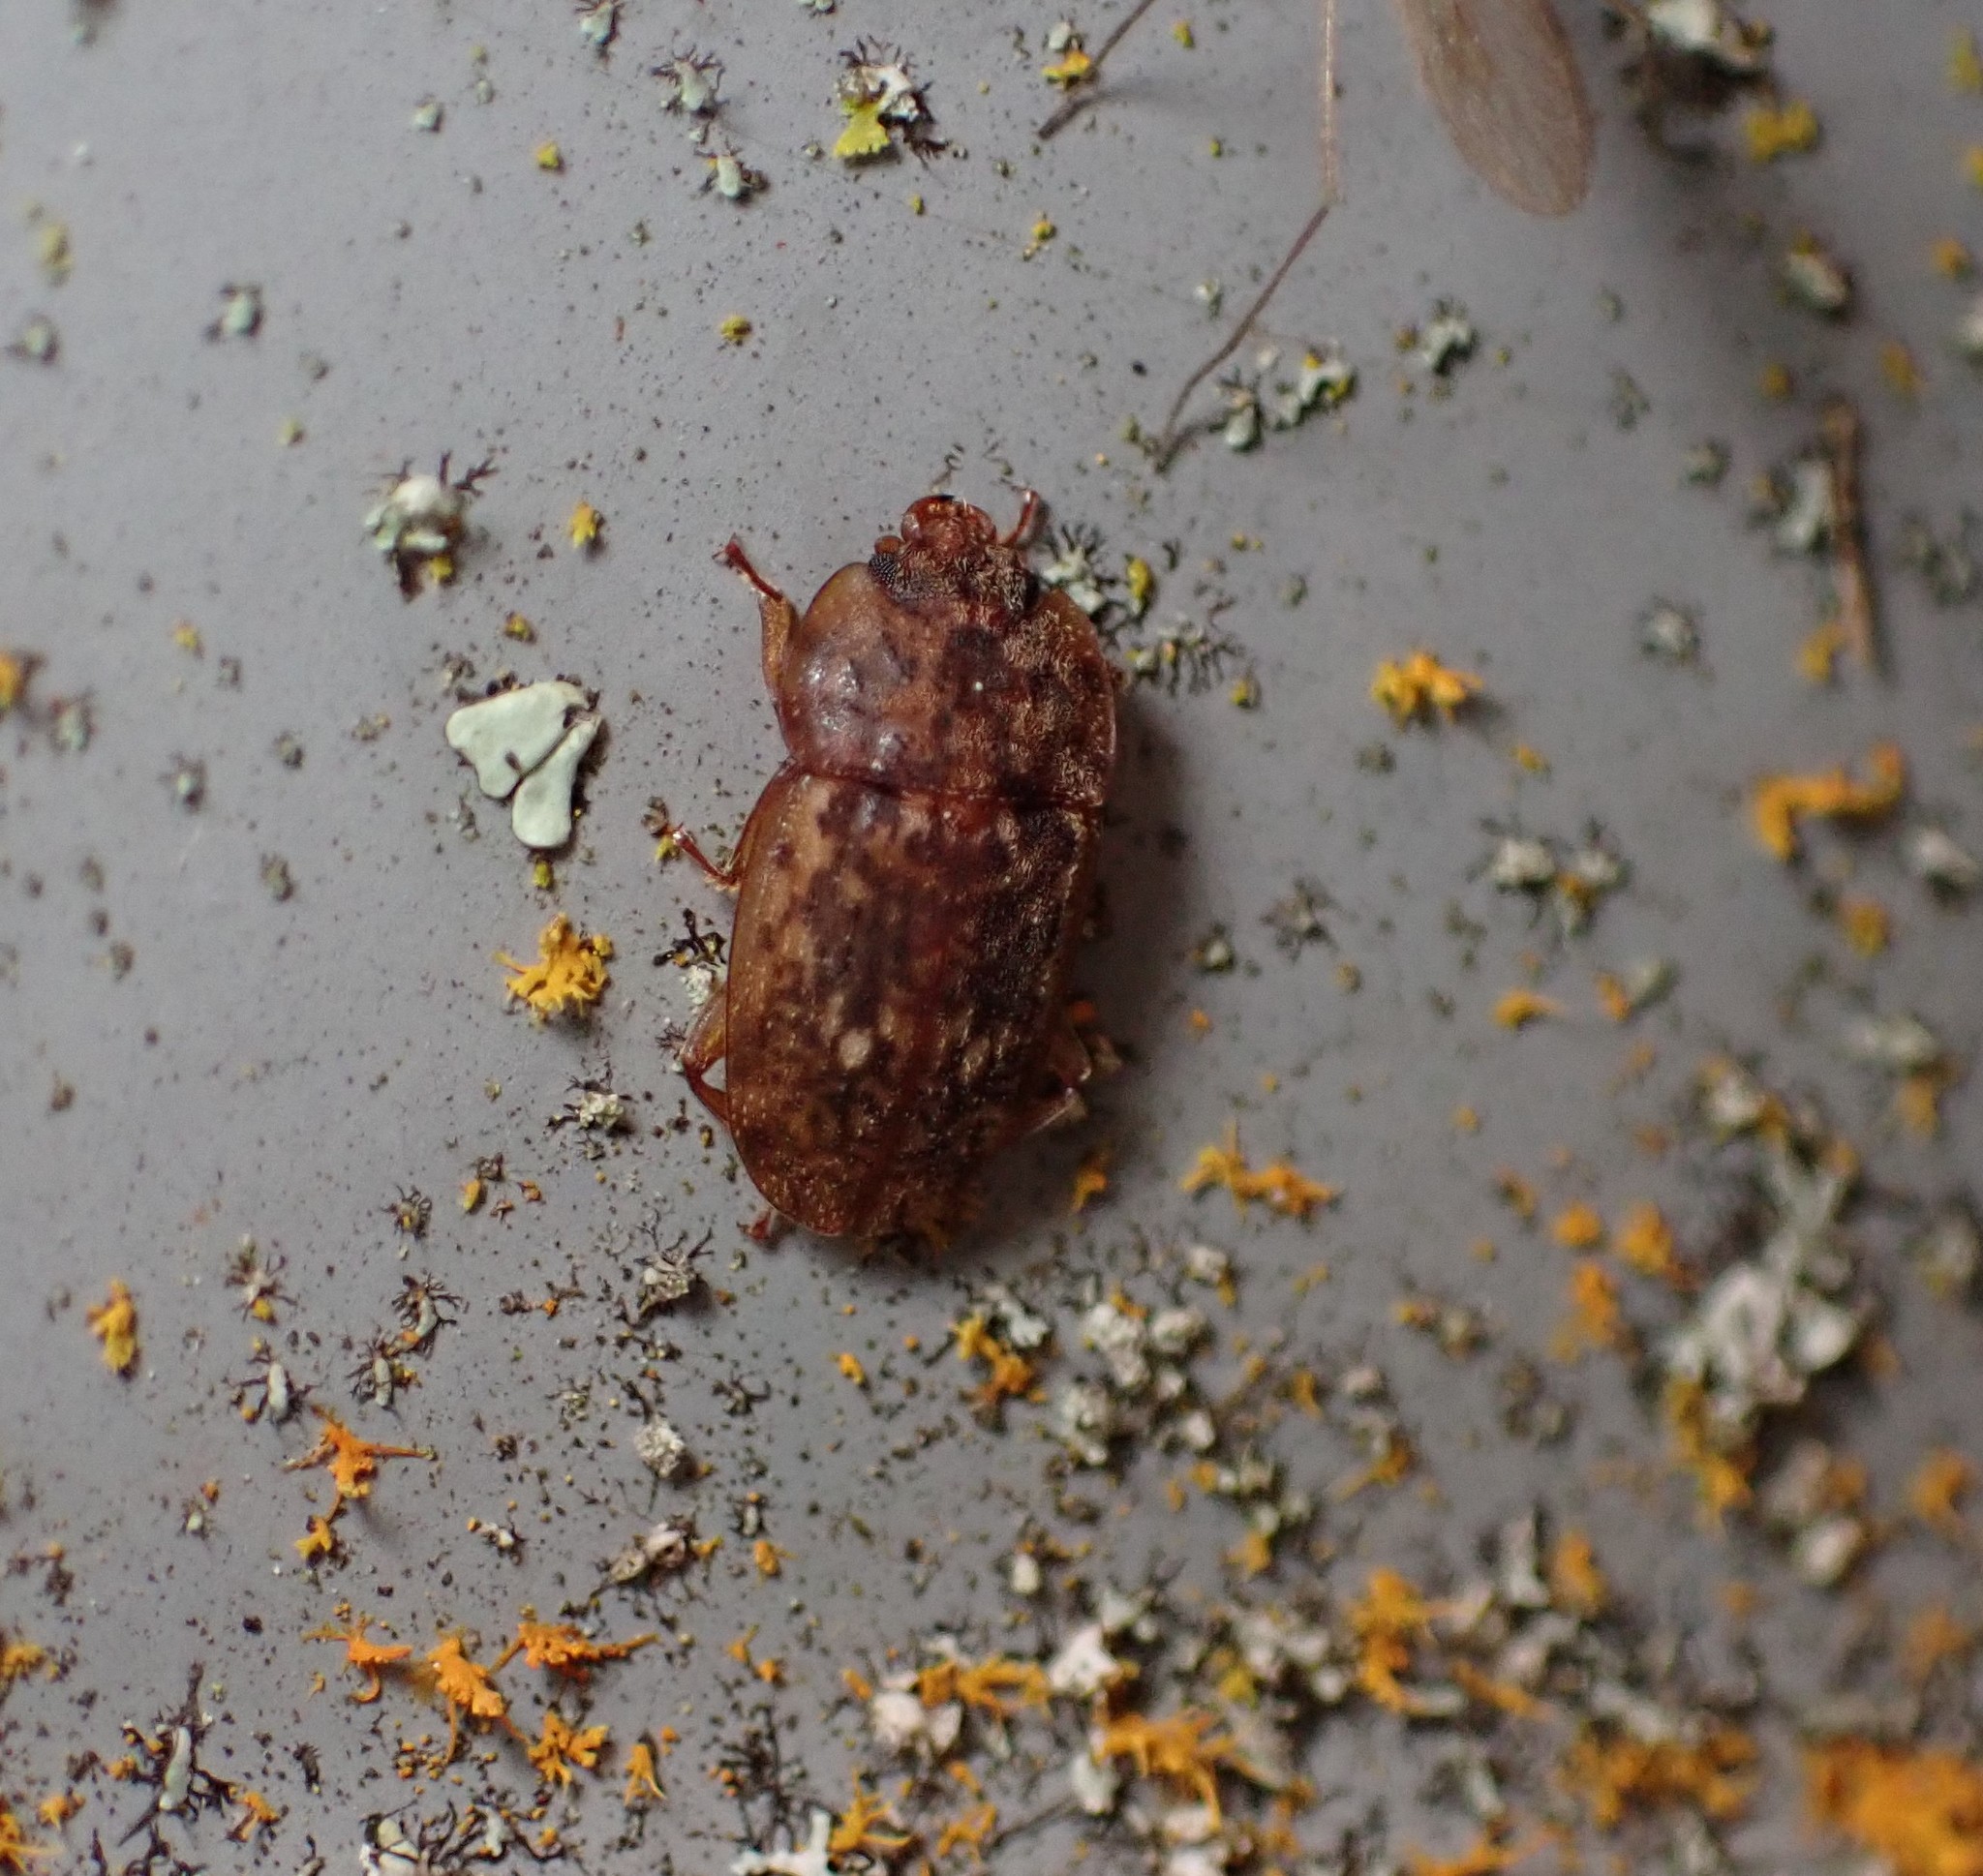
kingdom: Animalia
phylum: Arthropoda
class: Insecta
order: Coleoptera
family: Nitidulidae
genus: Soronia
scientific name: Soronia
